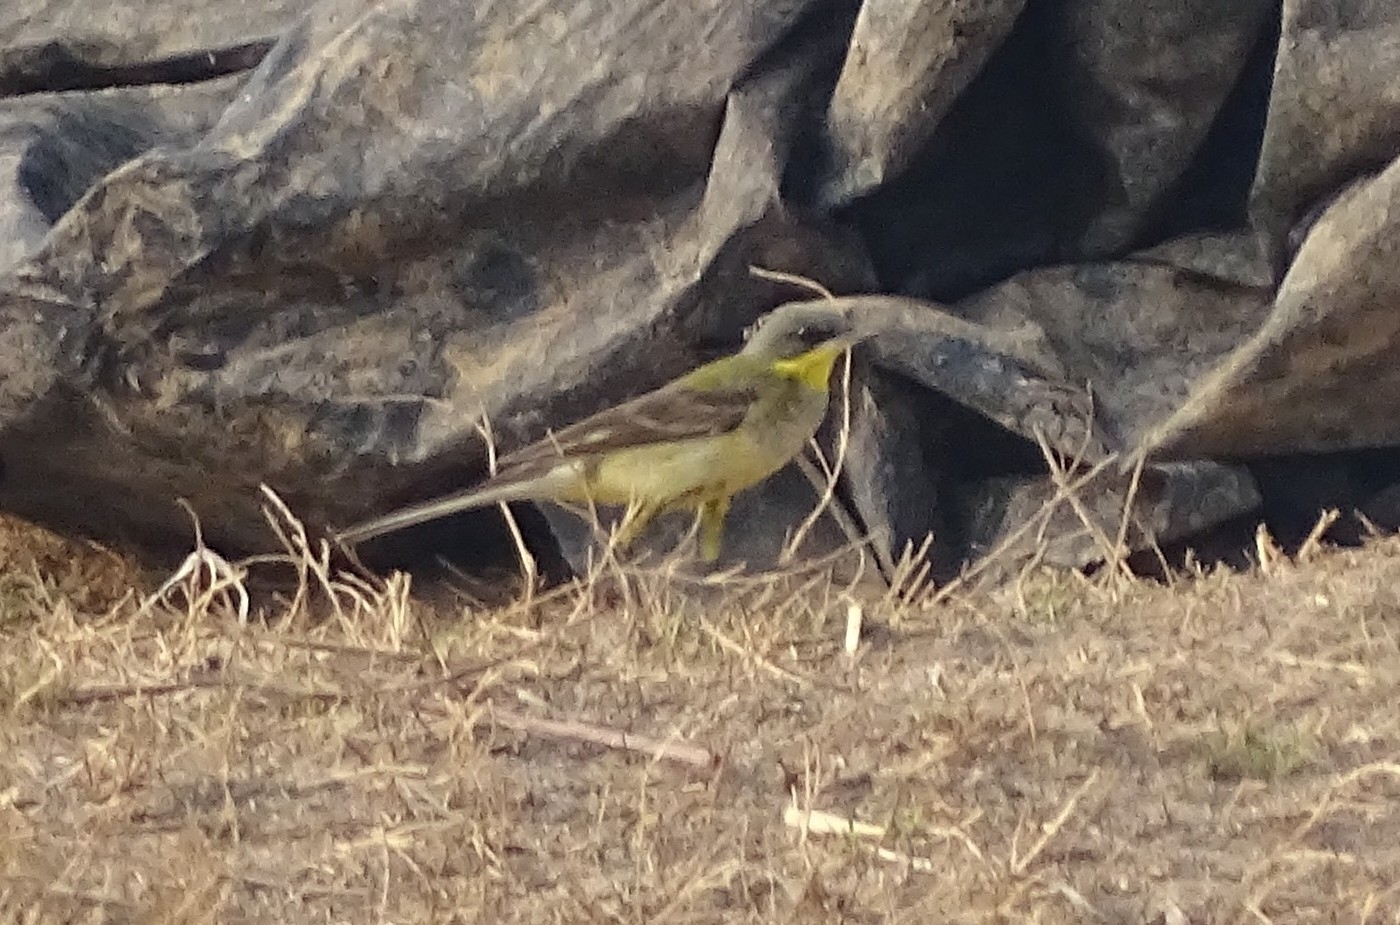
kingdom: Animalia
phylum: Chordata
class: Aves
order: Passeriformes
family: Motacillidae
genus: Motacilla
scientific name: Motacilla flava
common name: Western yellow wagtail
